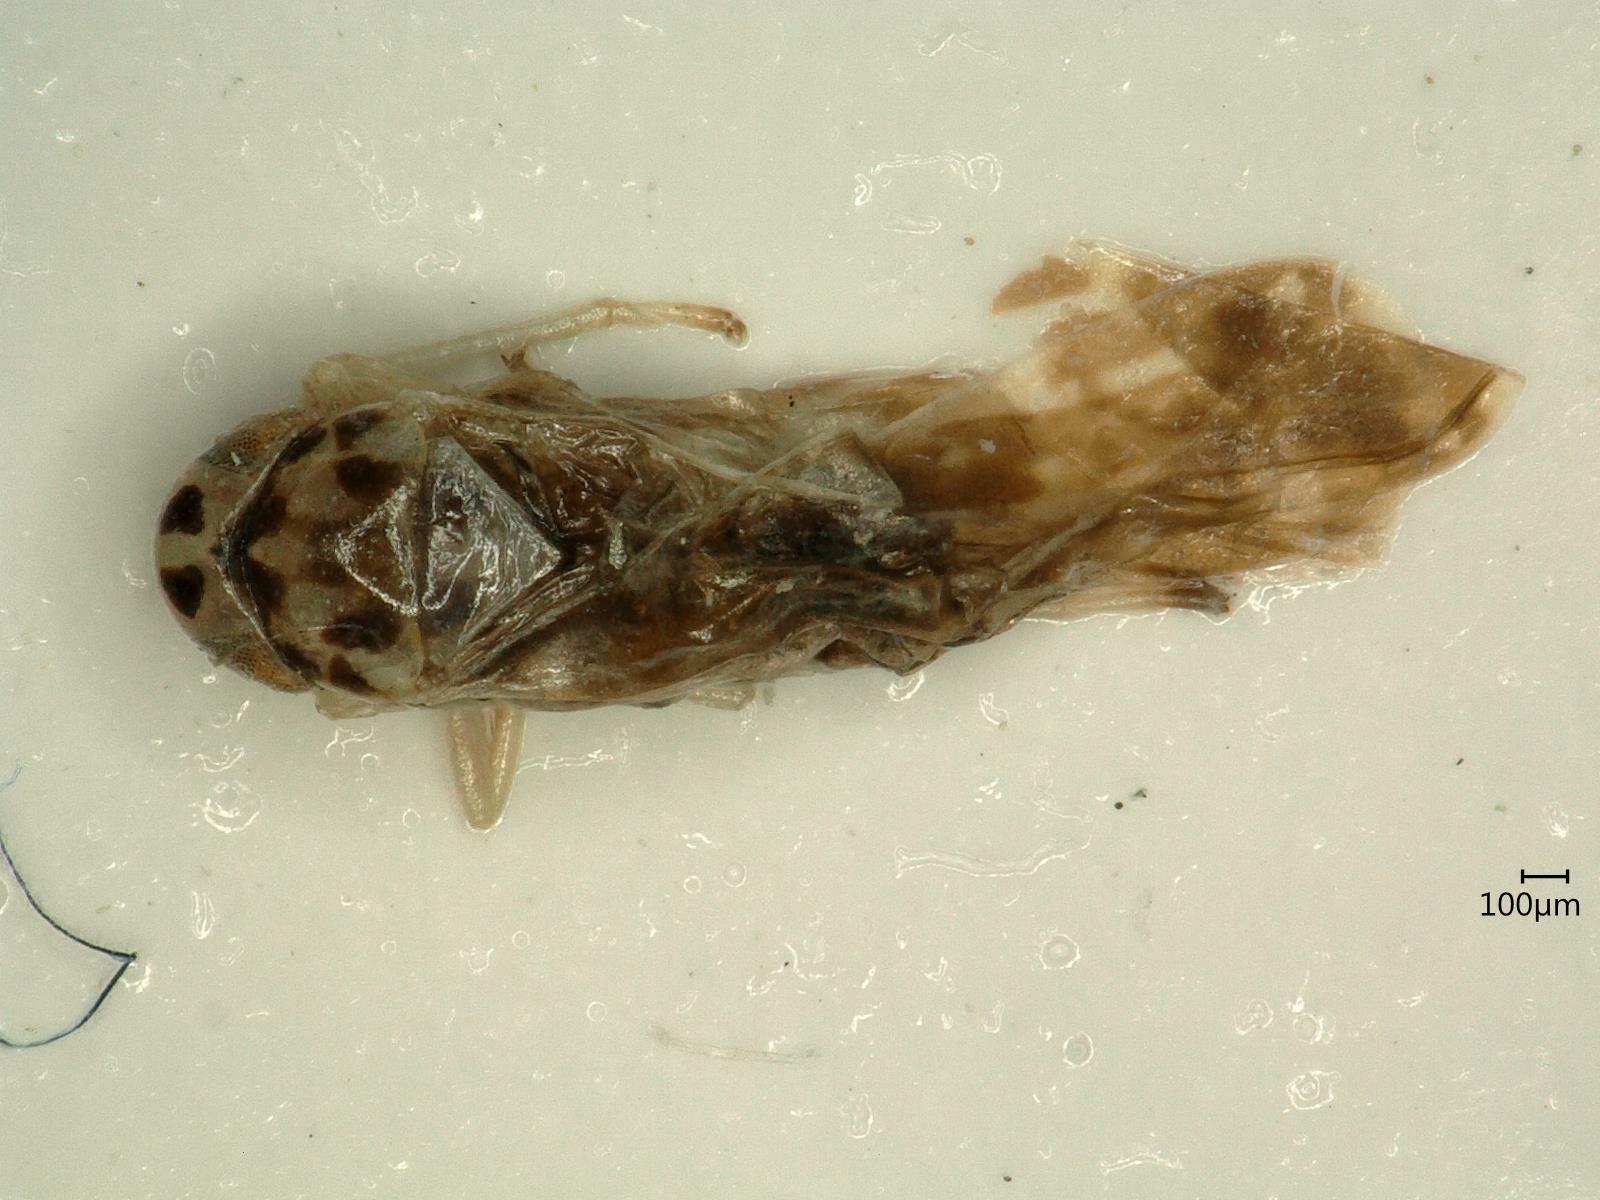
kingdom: Animalia
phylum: Arthropoda
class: Insecta
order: Hemiptera
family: Cicadellidae
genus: Eupteryx
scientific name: Eupteryx urticae
